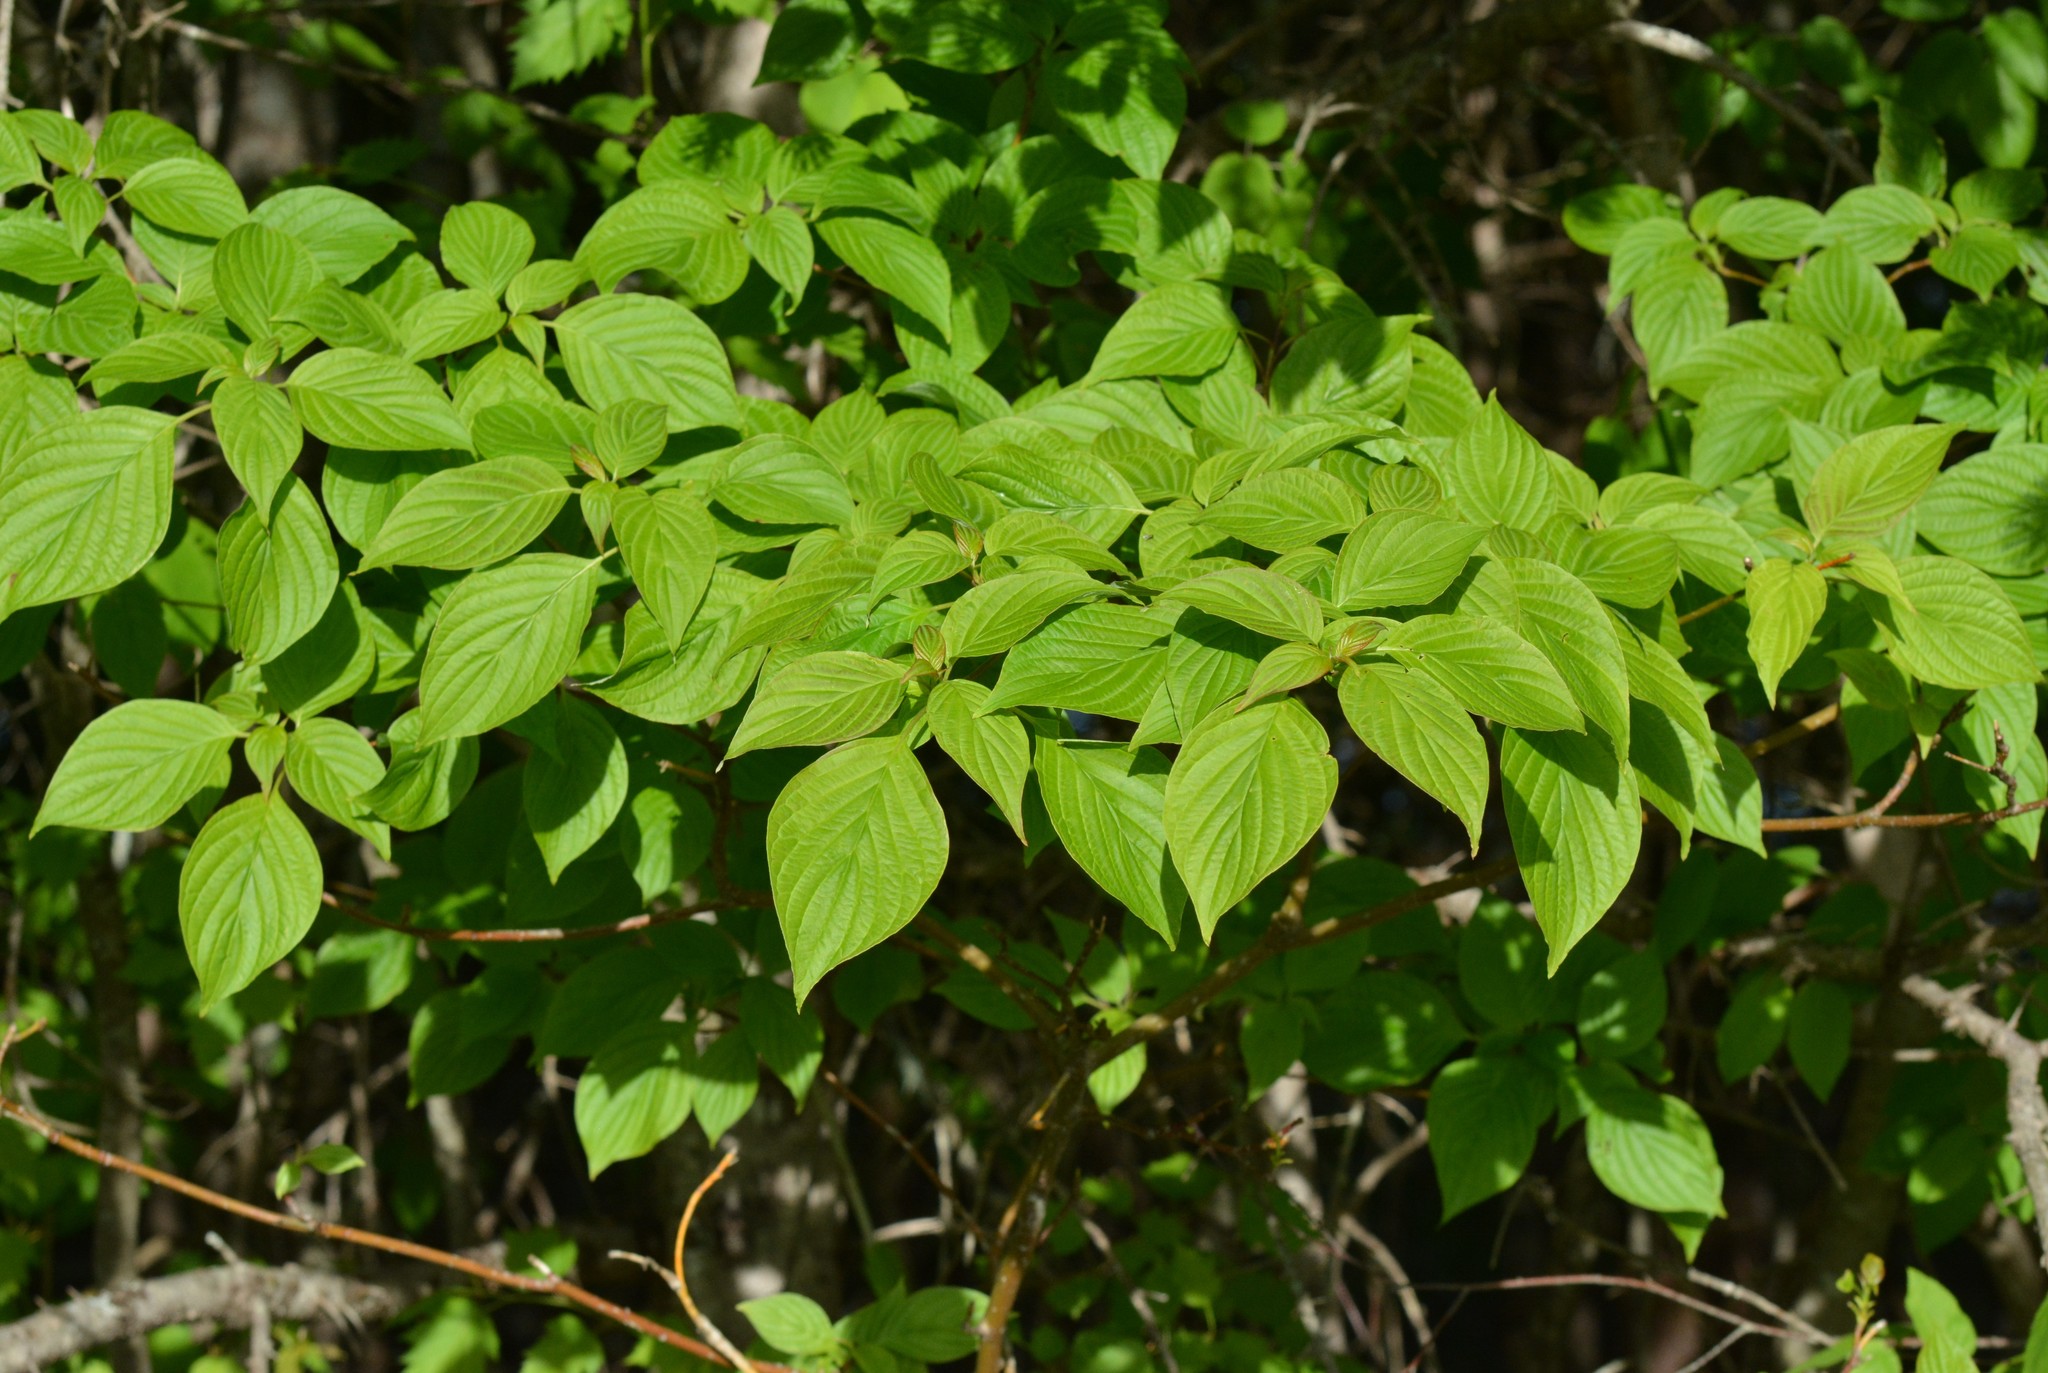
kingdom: Plantae
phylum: Tracheophyta
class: Magnoliopsida
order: Cornales
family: Cornaceae
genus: Cornus
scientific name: Cornus alternifolia
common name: Pagoda dogwood
